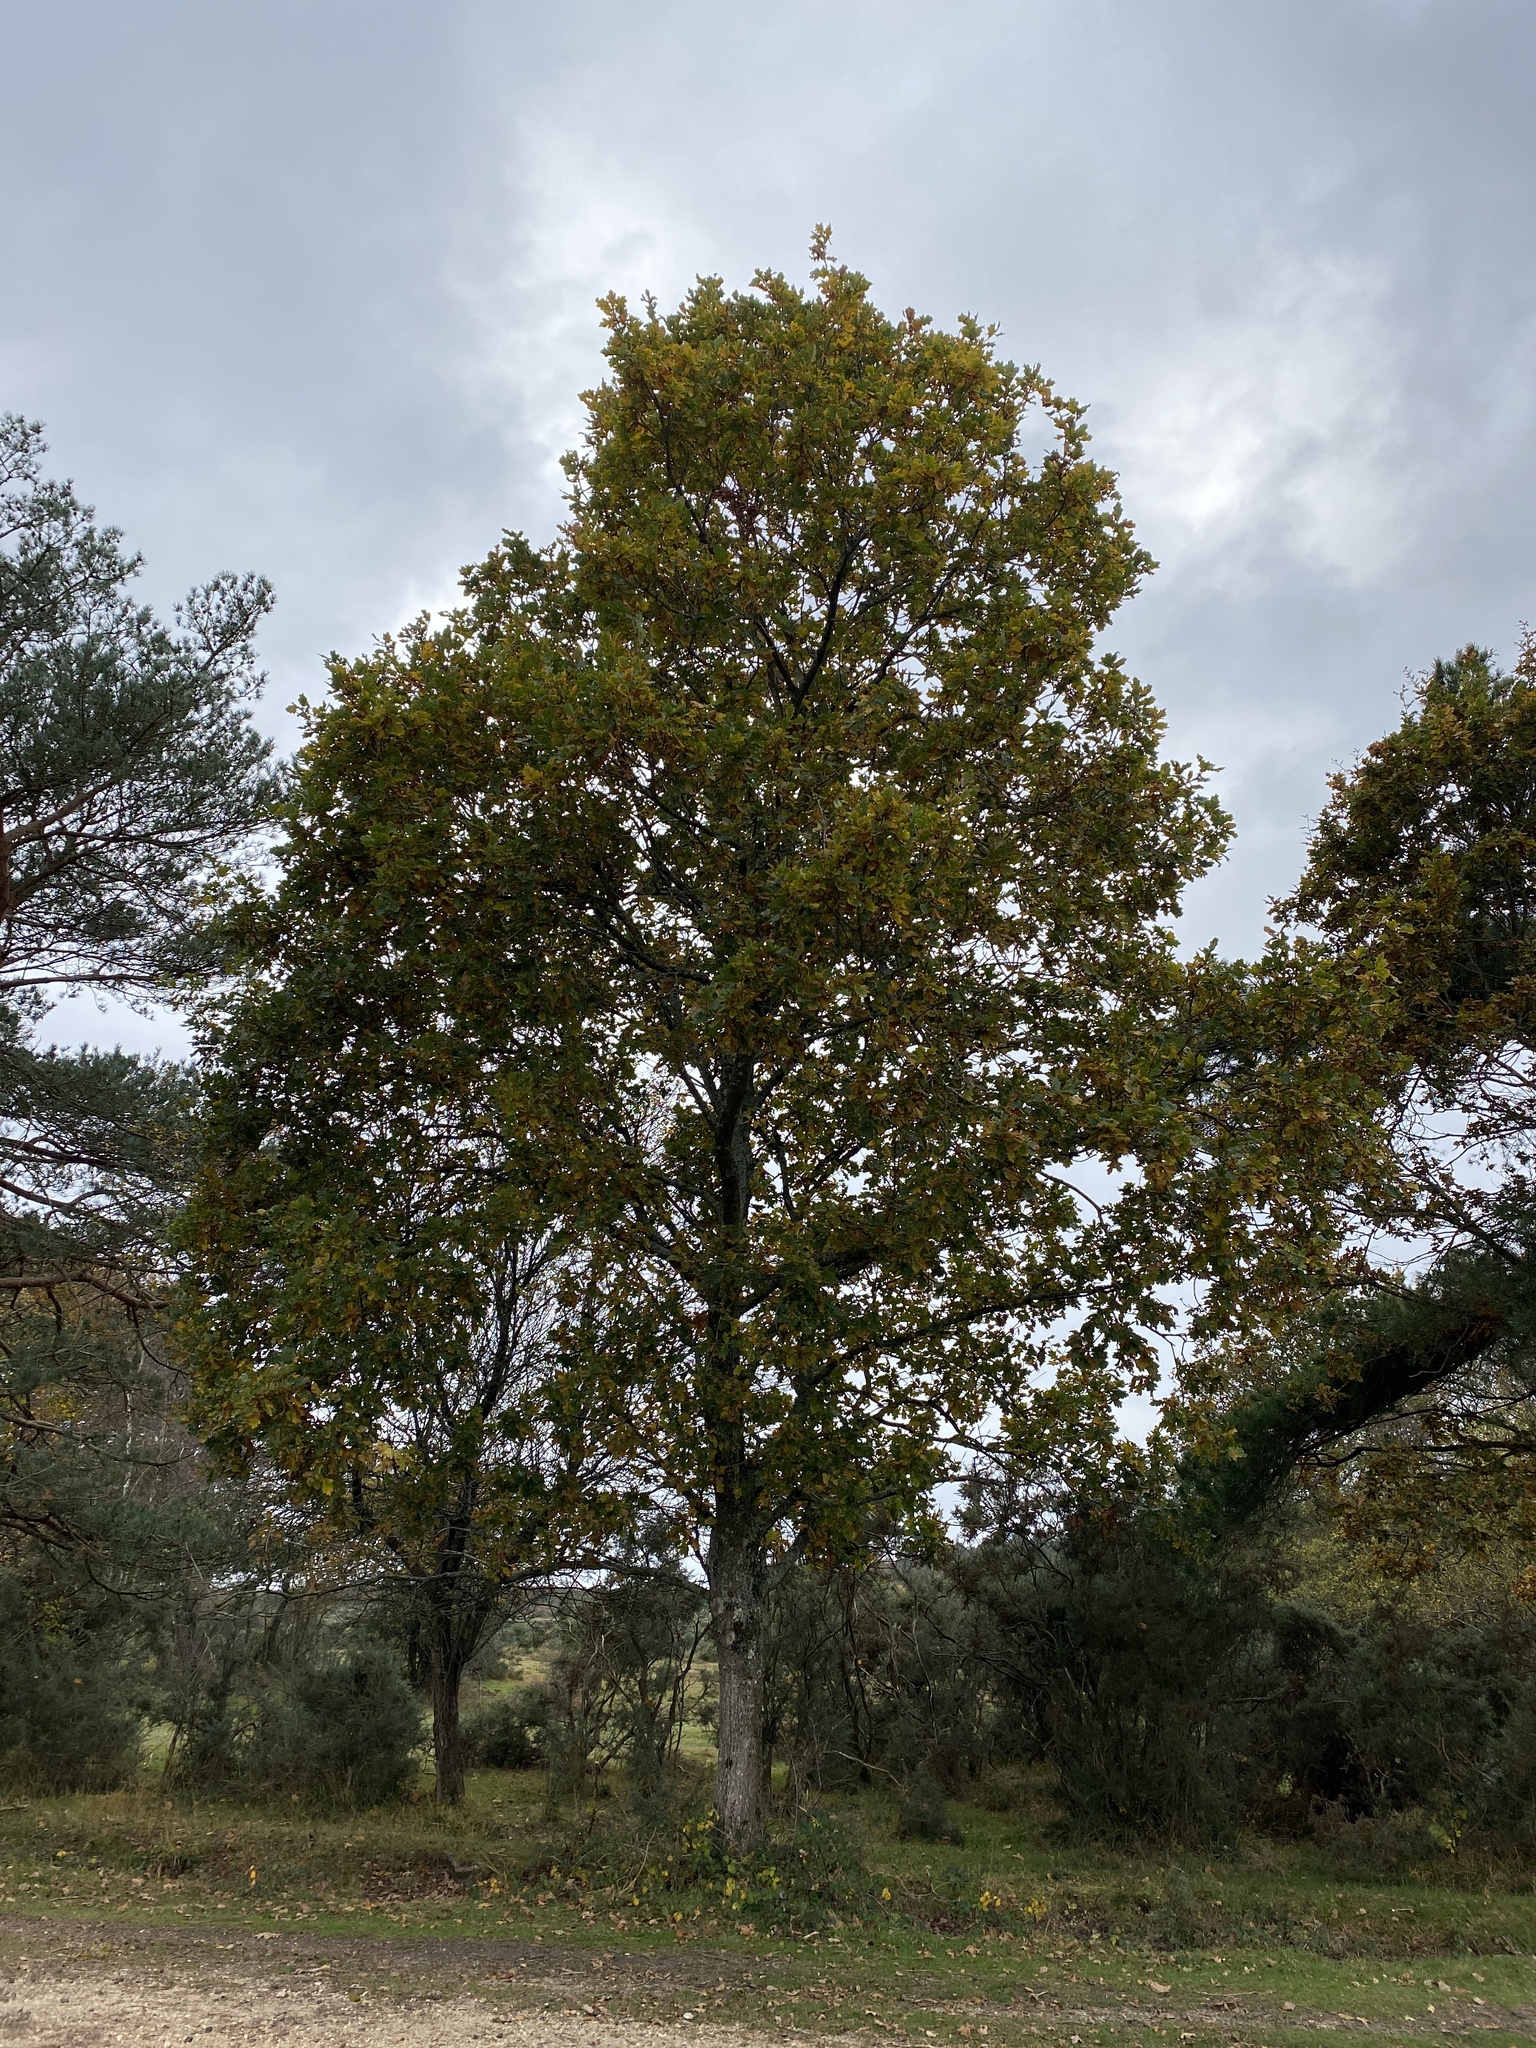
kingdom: Plantae
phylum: Tracheophyta
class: Magnoliopsida
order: Fagales
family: Fagaceae
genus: Quercus
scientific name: Quercus robur
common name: Pedunculate oak
